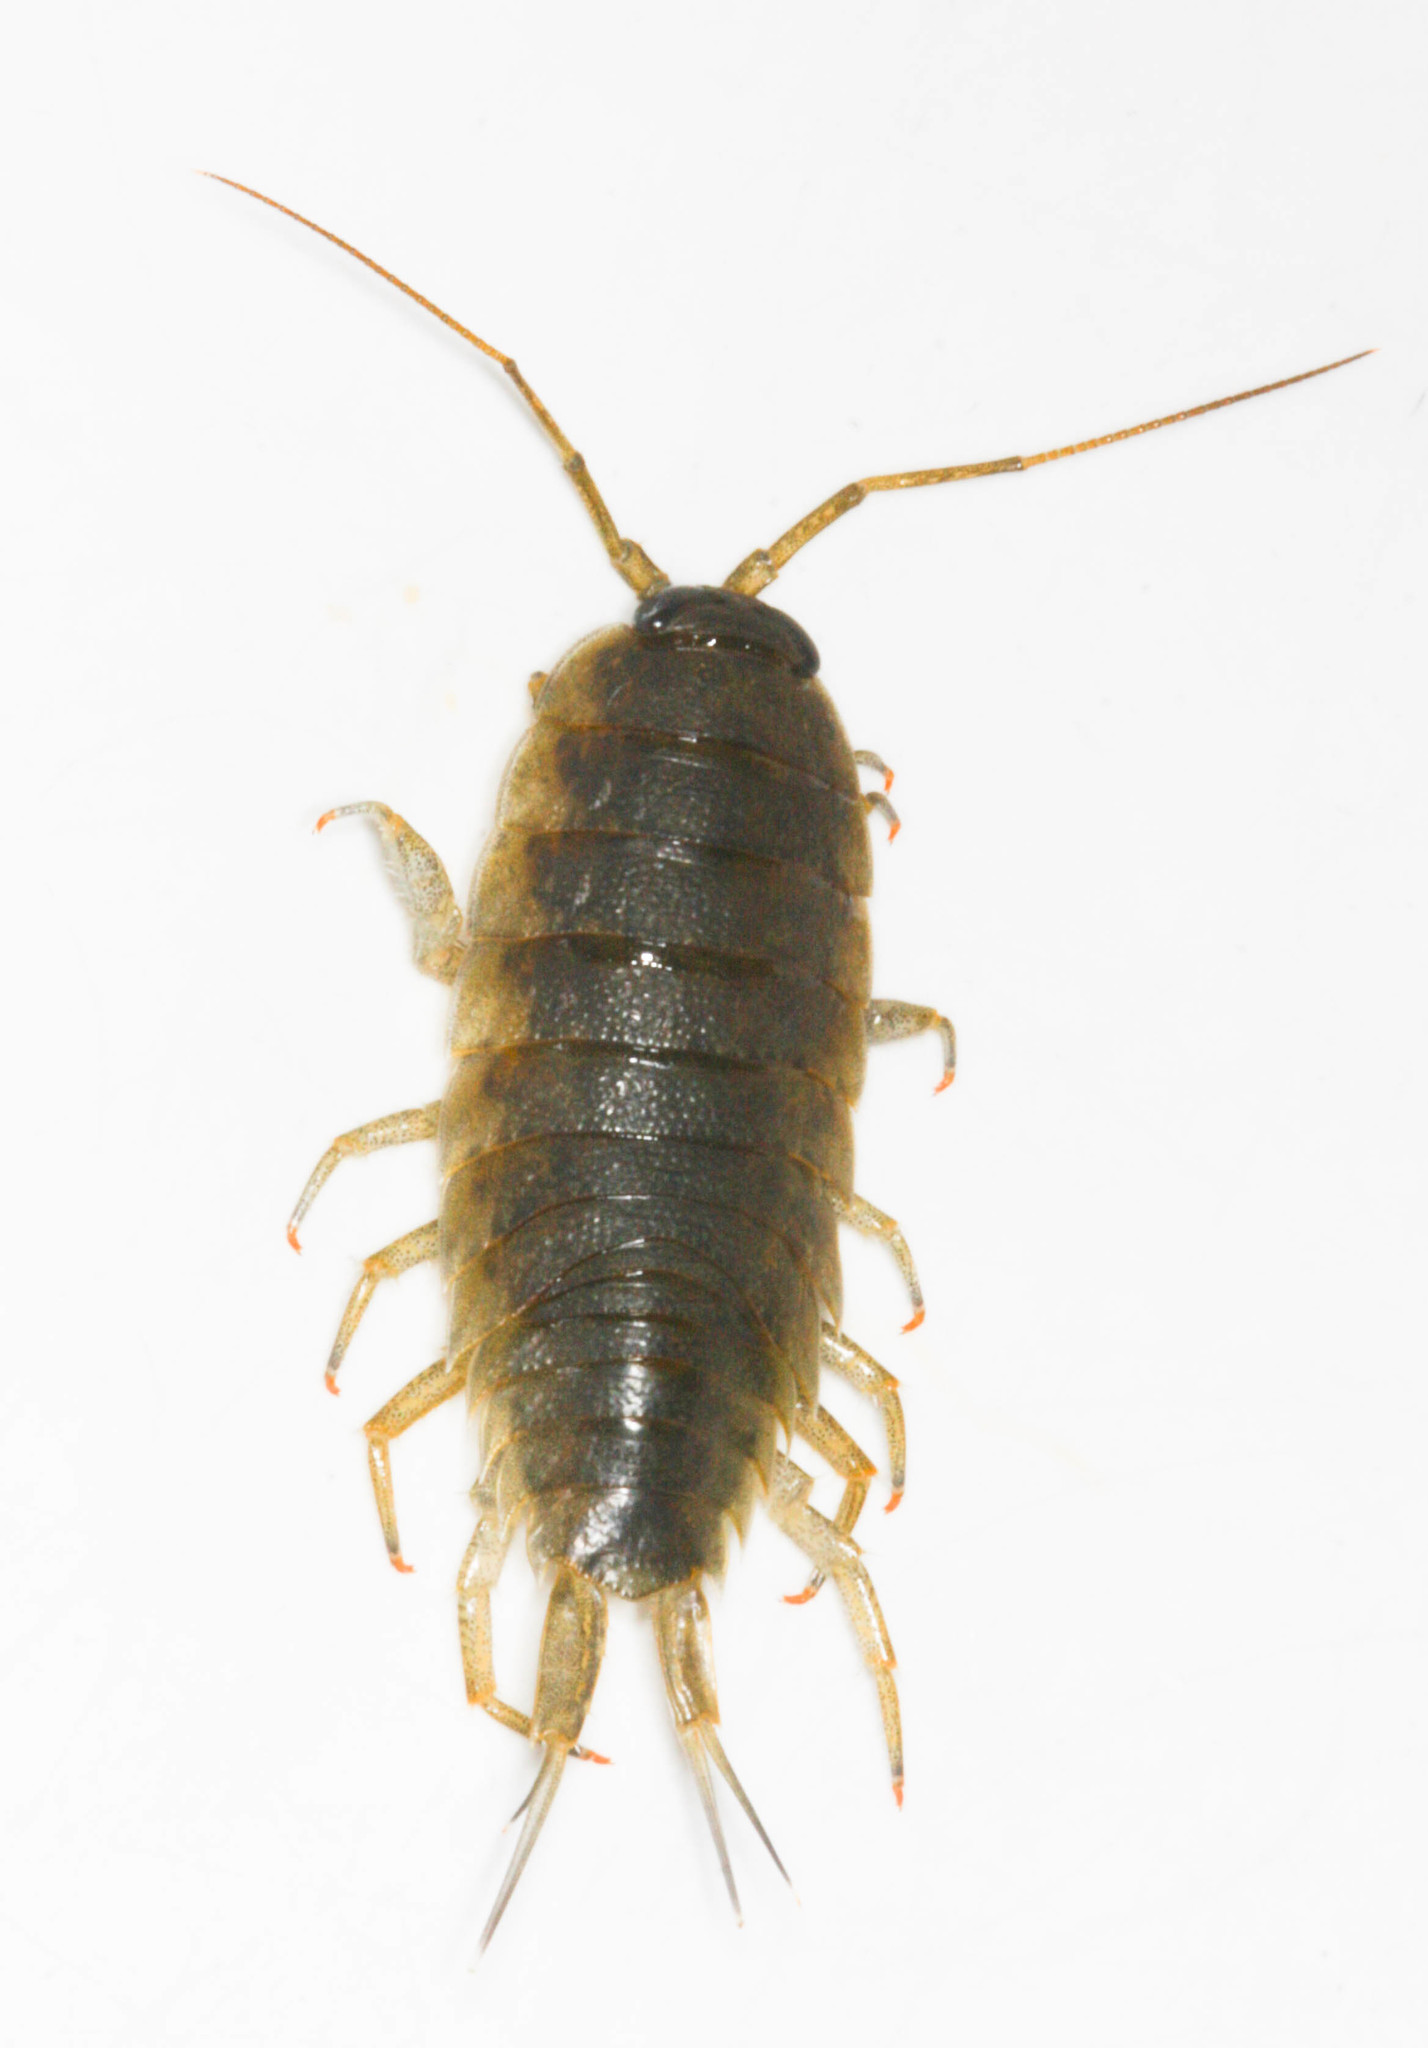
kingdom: Animalia
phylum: Arthropoda
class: Malacostraca
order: Isopoda
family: Ligiidae
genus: Ligia
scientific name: Ligia occidentalis
